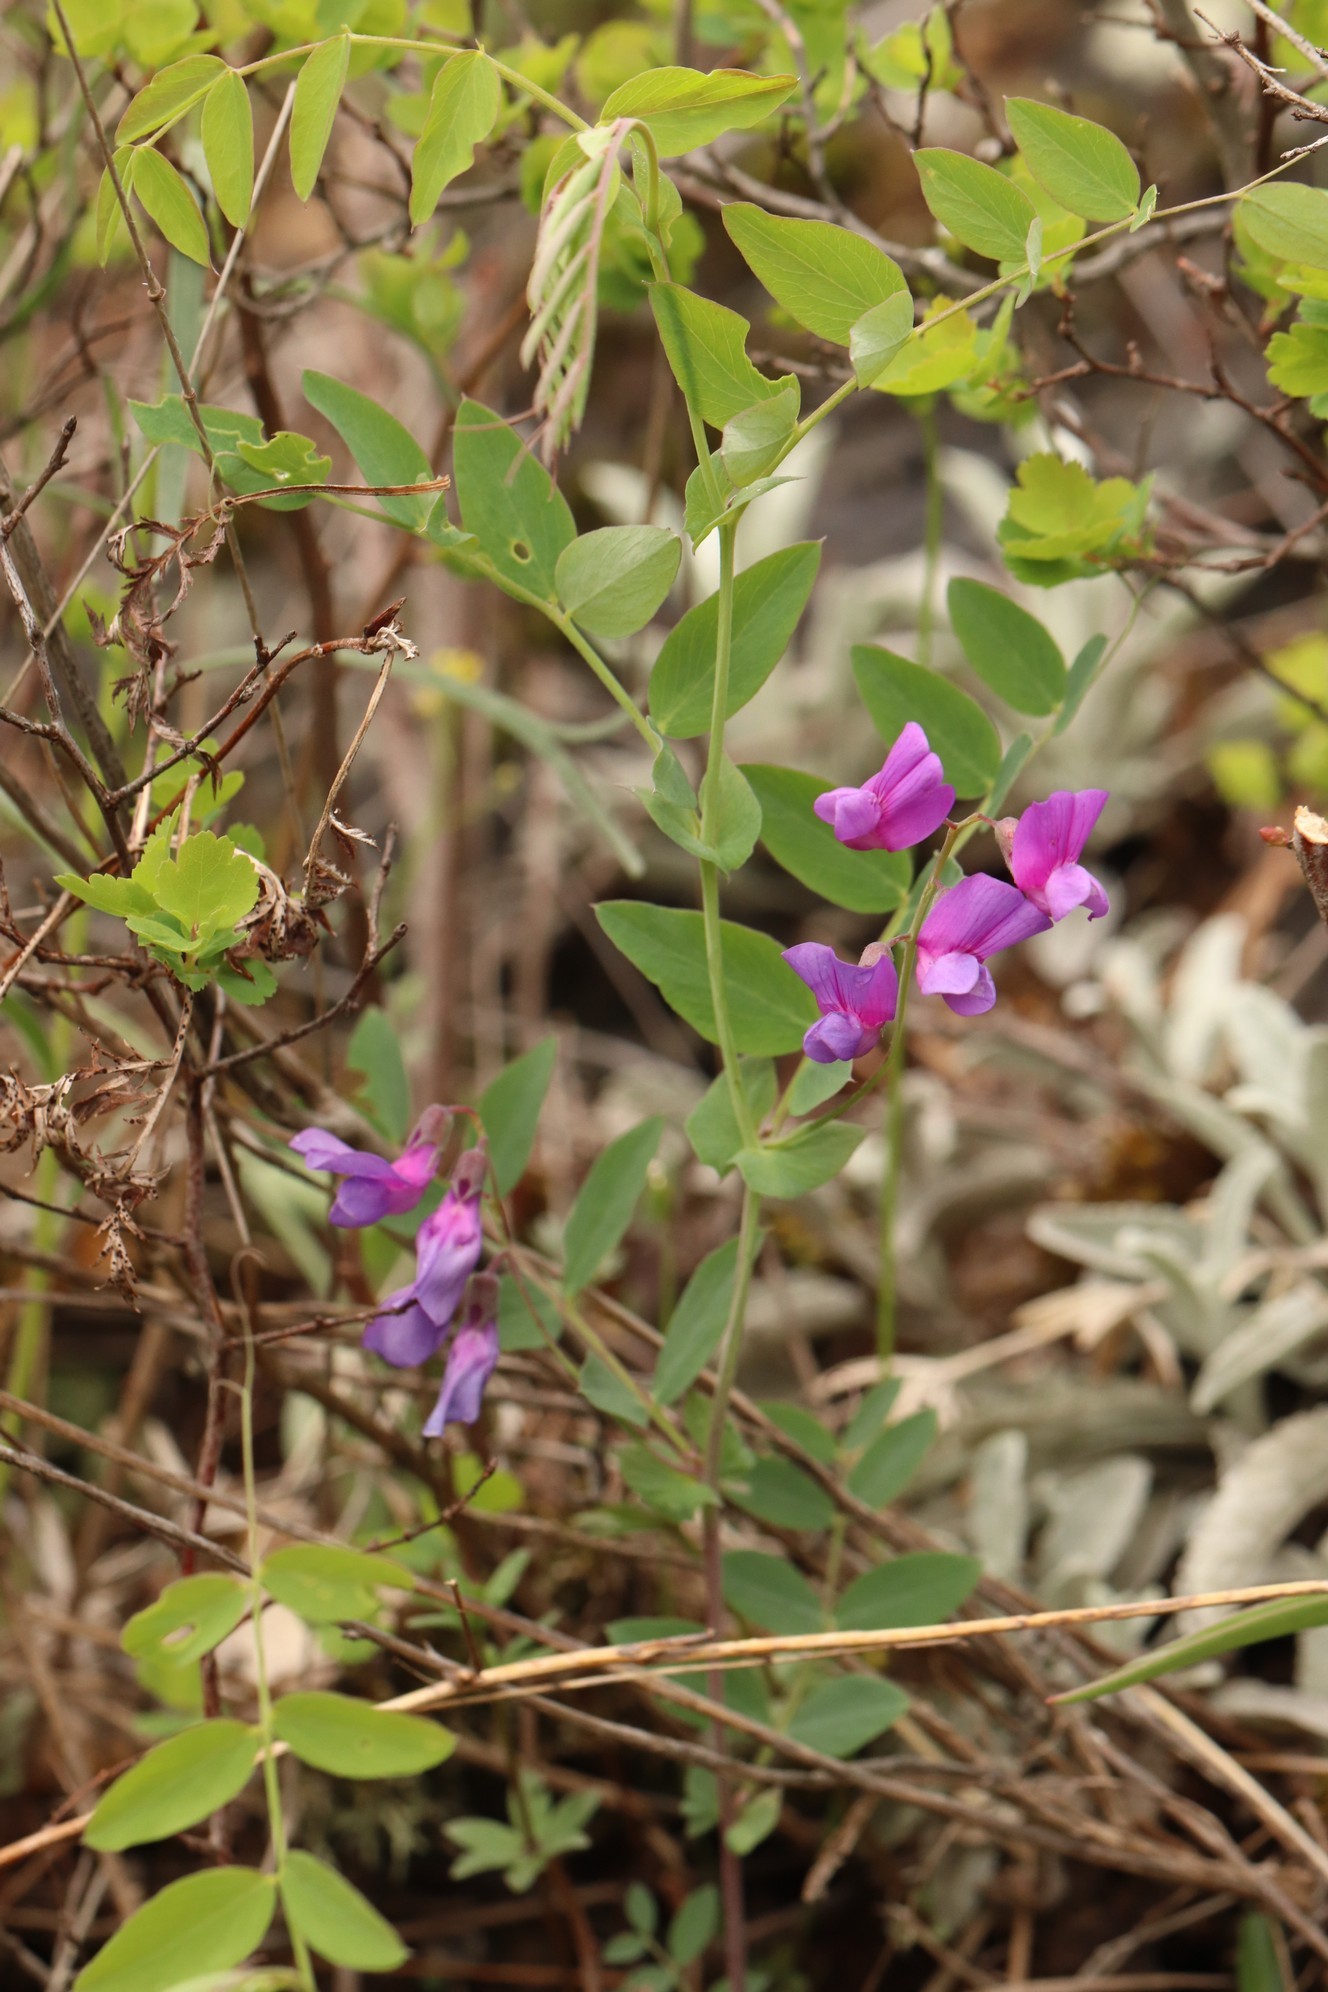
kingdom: Plantae
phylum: Tracheophyta
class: Magnoliopsida
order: Fabales
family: Fabaceae
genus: Lathyrus
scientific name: Lathyrus humilis
